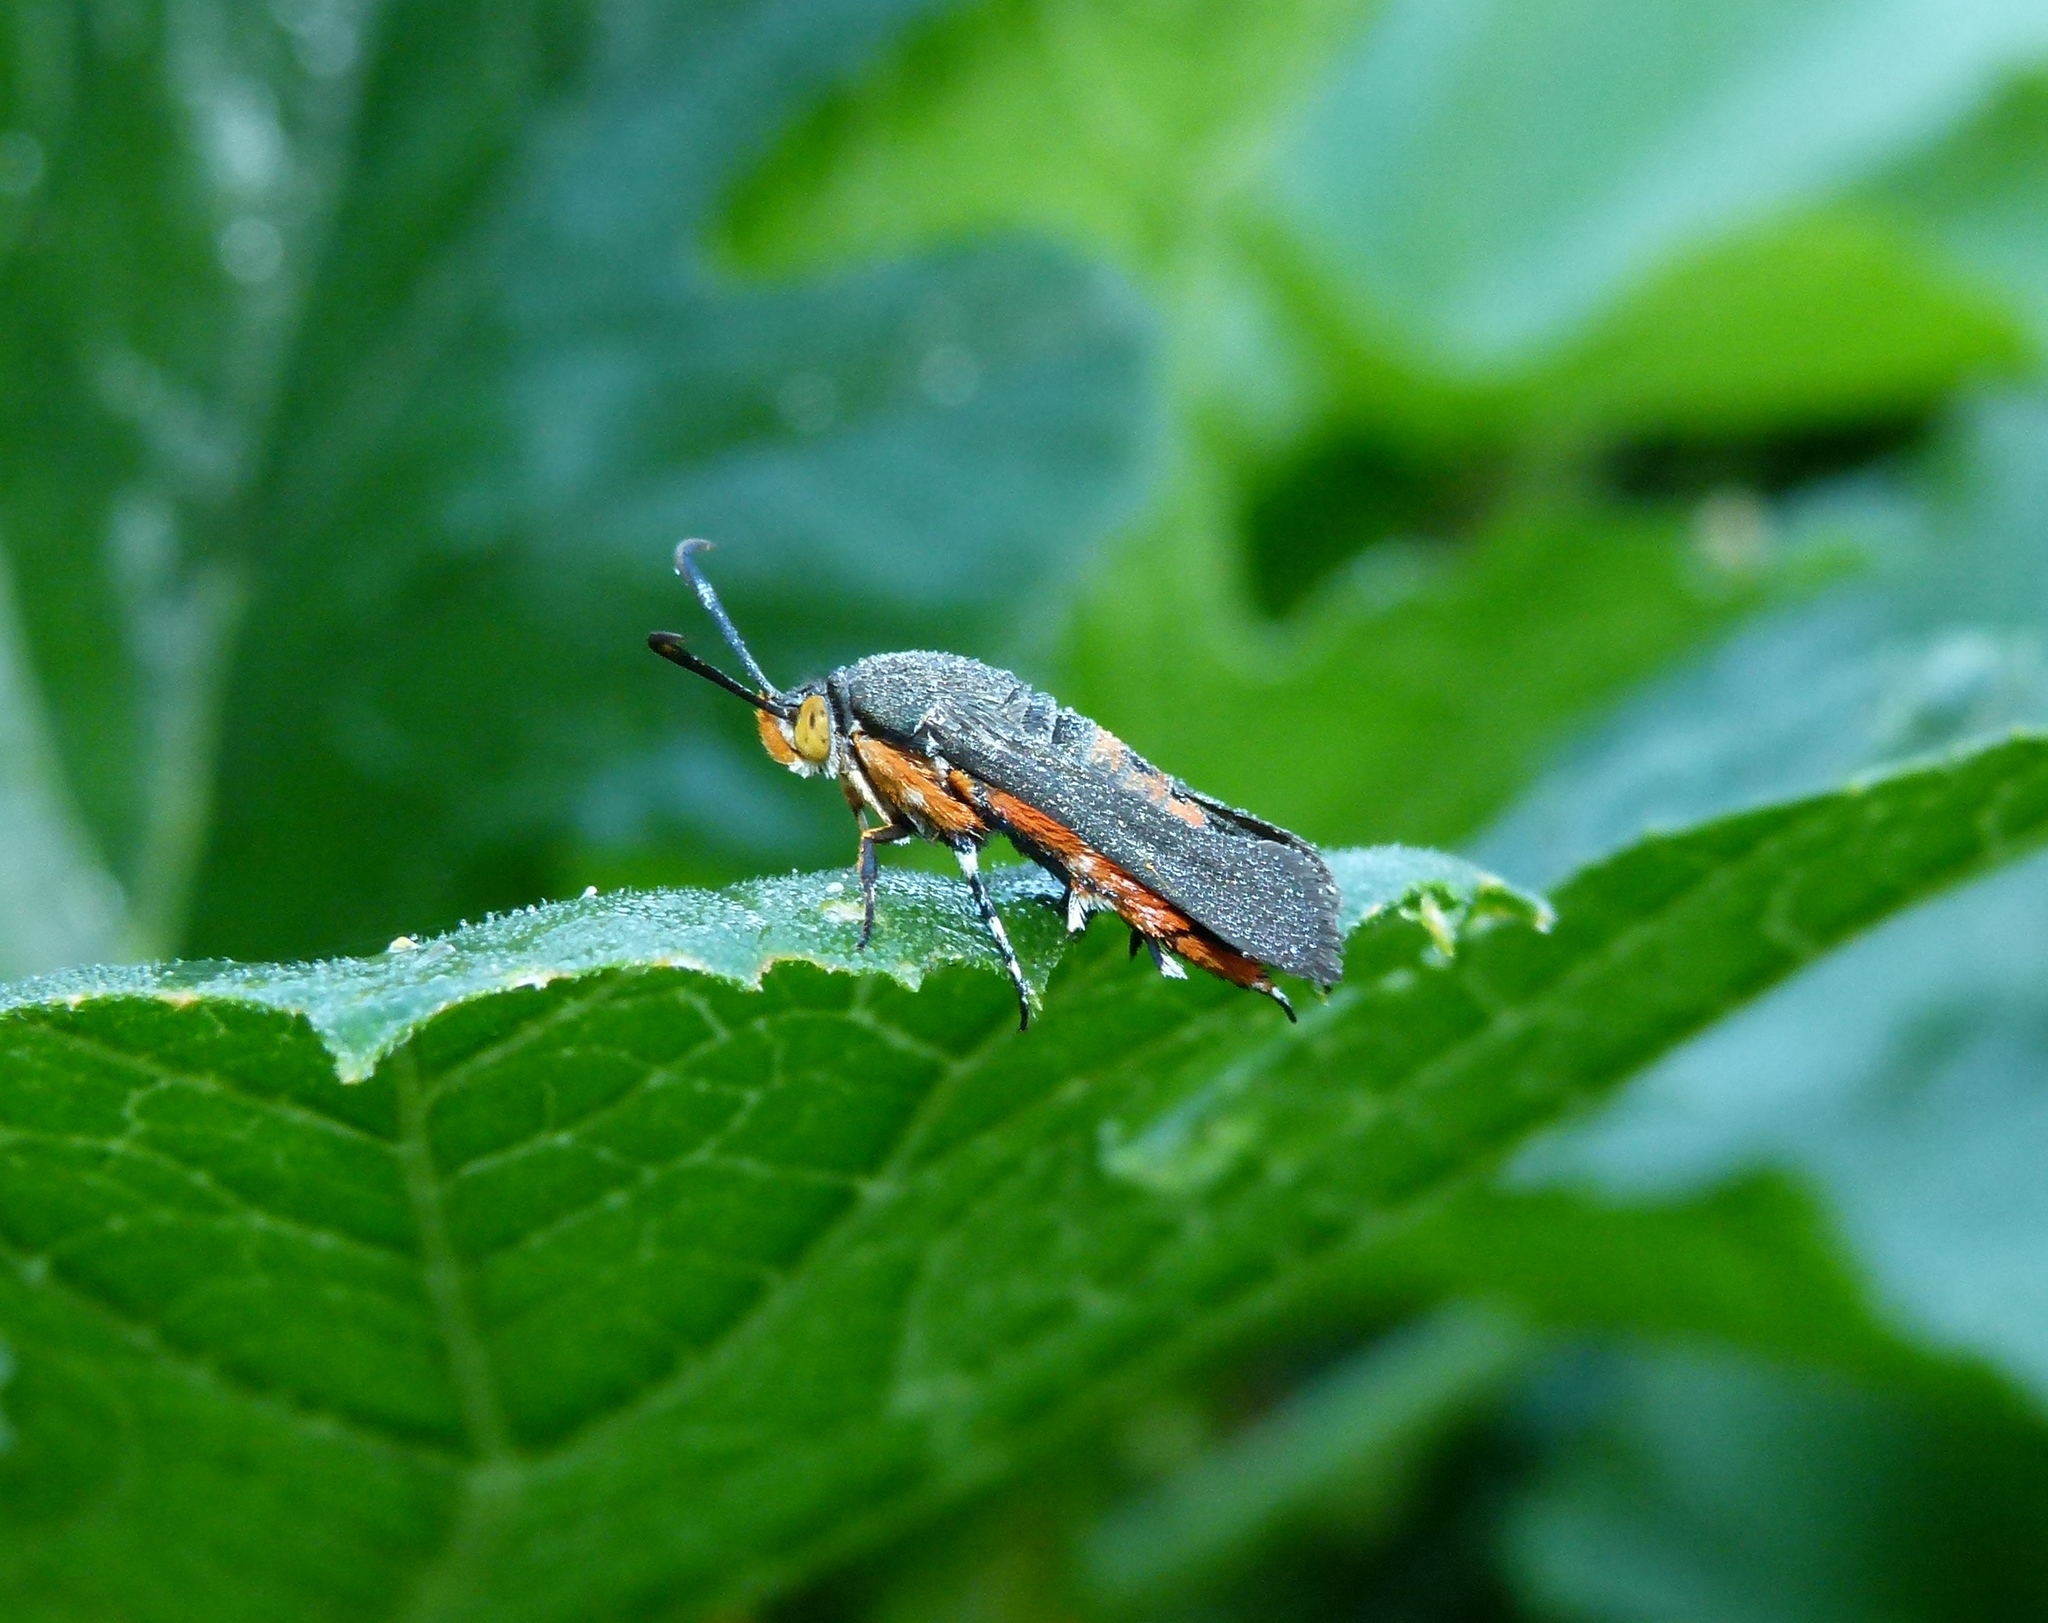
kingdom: Animalia
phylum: Arthropoda
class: Insecta
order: Lepidoptera
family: Sesiidae
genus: Eichlinia
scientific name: Eichlinia cucurbitae
